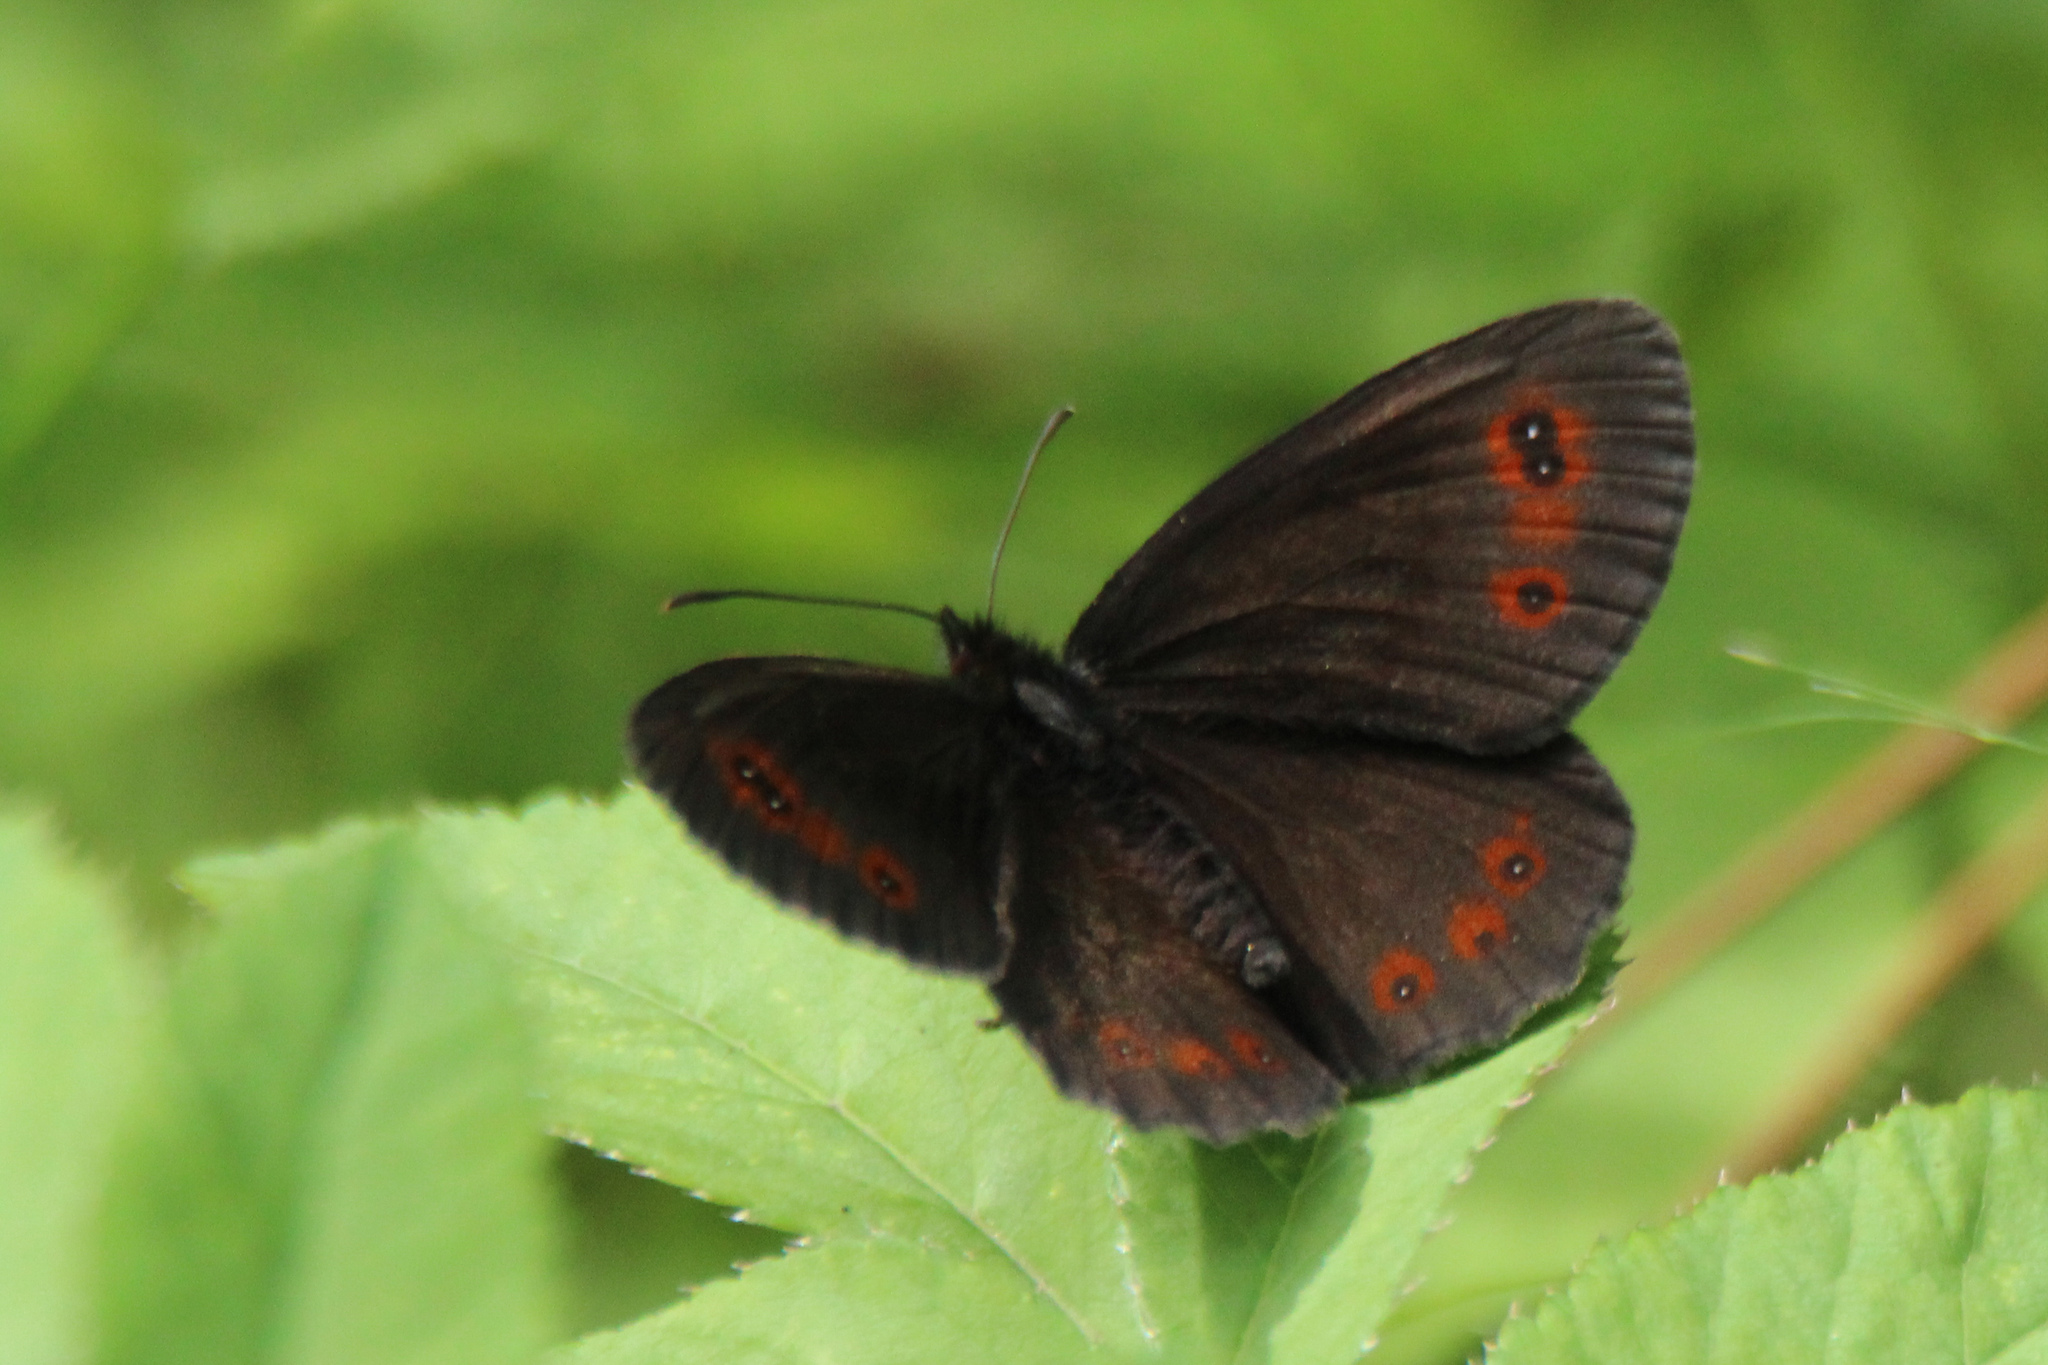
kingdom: Animalia
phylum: Arthropoda
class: Insecta
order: Lepidoptera
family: Nymphalidae
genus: Erebia
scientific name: Erebia aethiops
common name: Scotch argus
